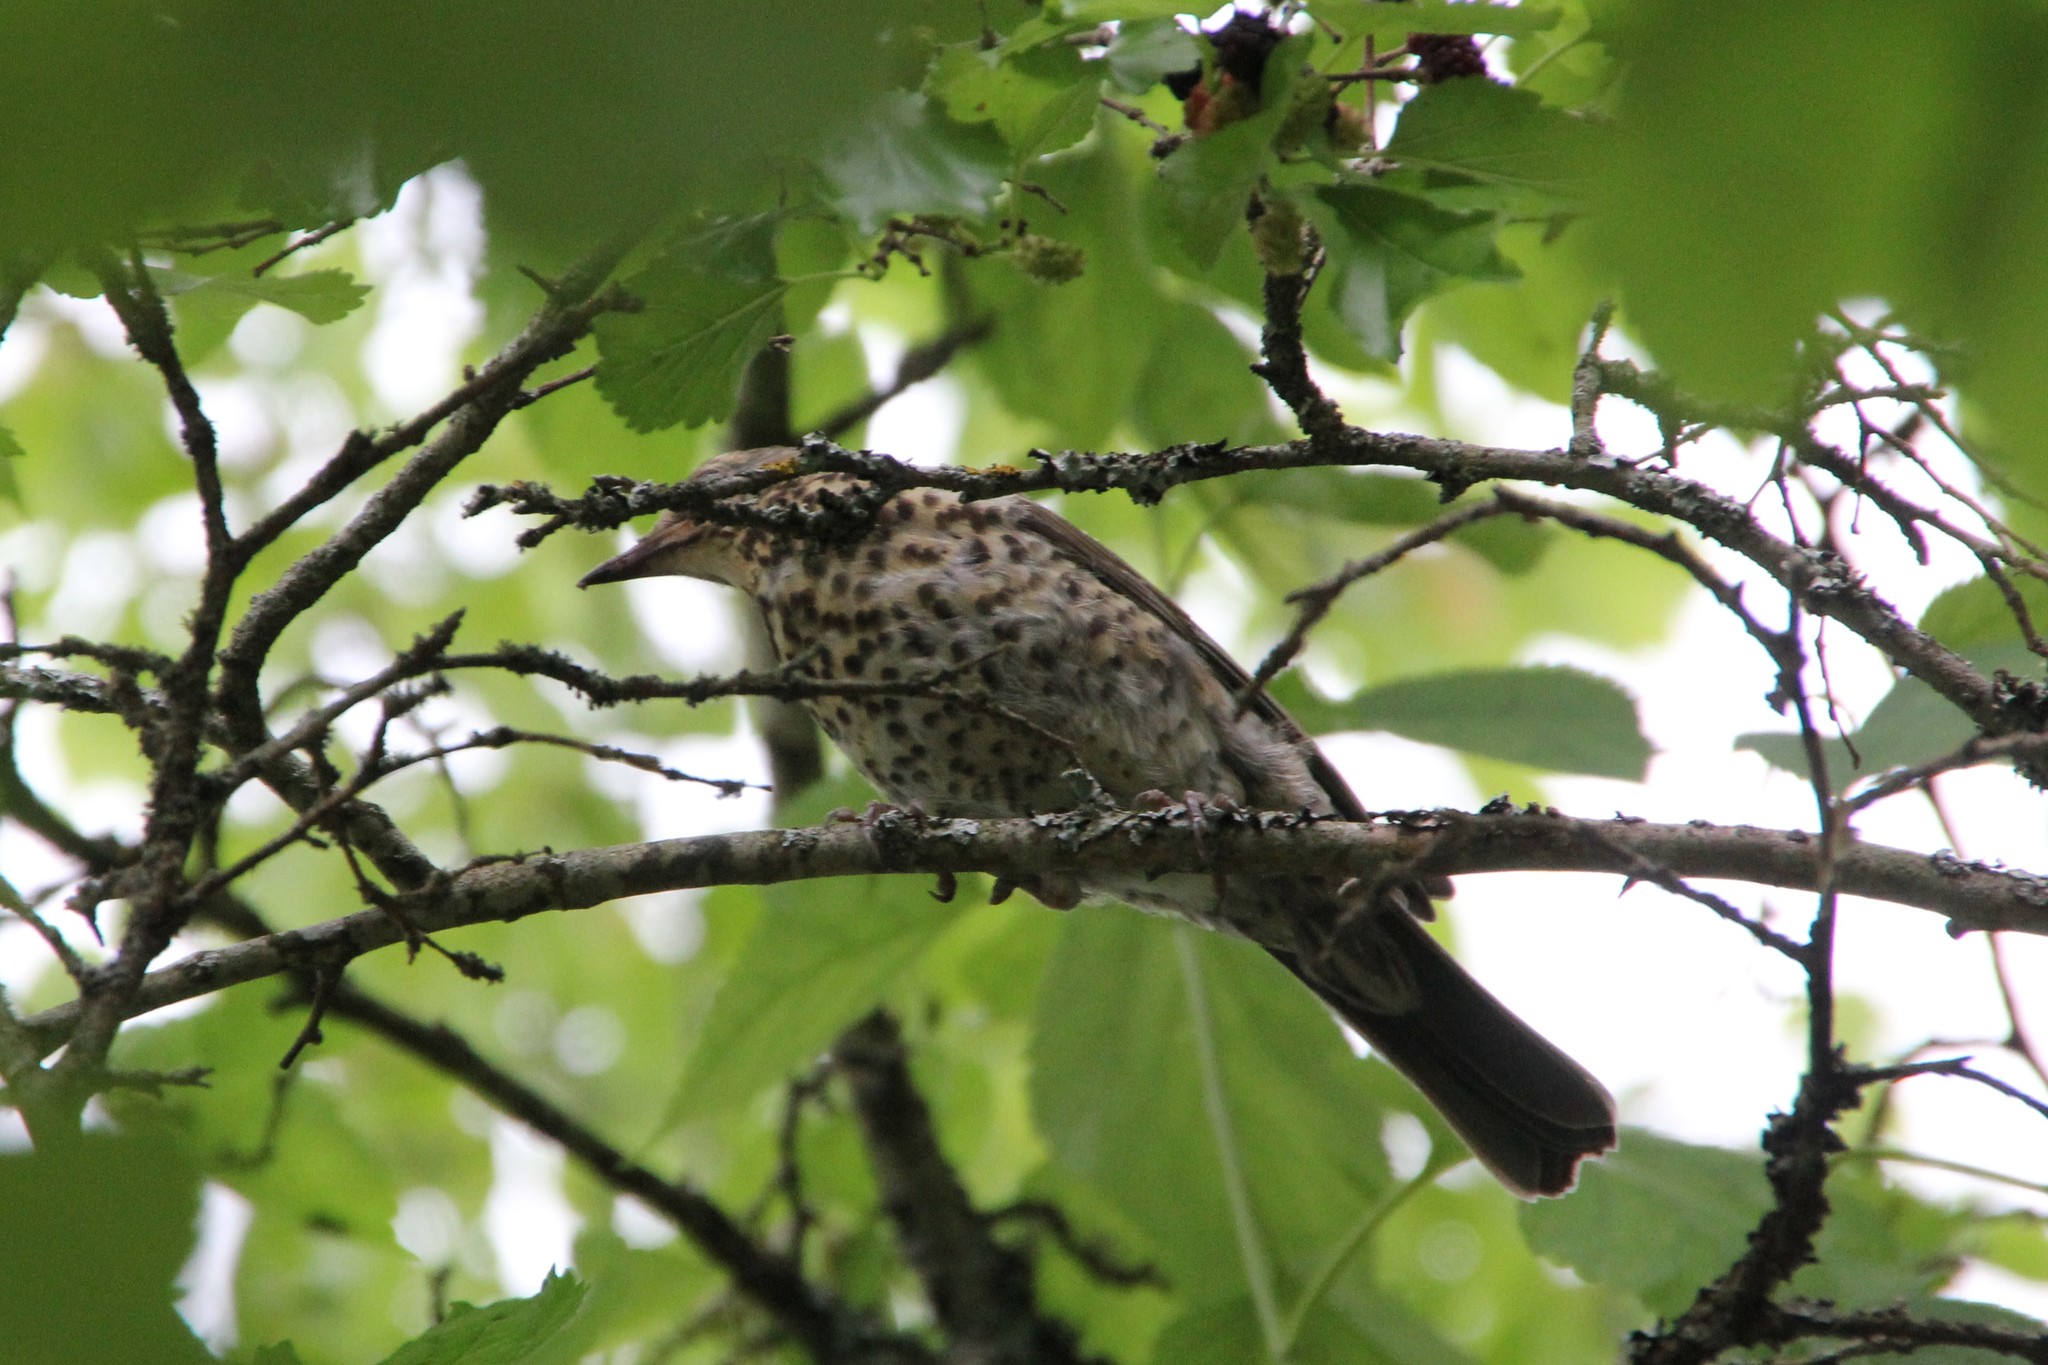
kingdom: Animalia
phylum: Chordata
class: Aves
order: Passeriformes
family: Turdidae
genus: Turdus
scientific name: Turdus pilaris
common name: Fieldfare
